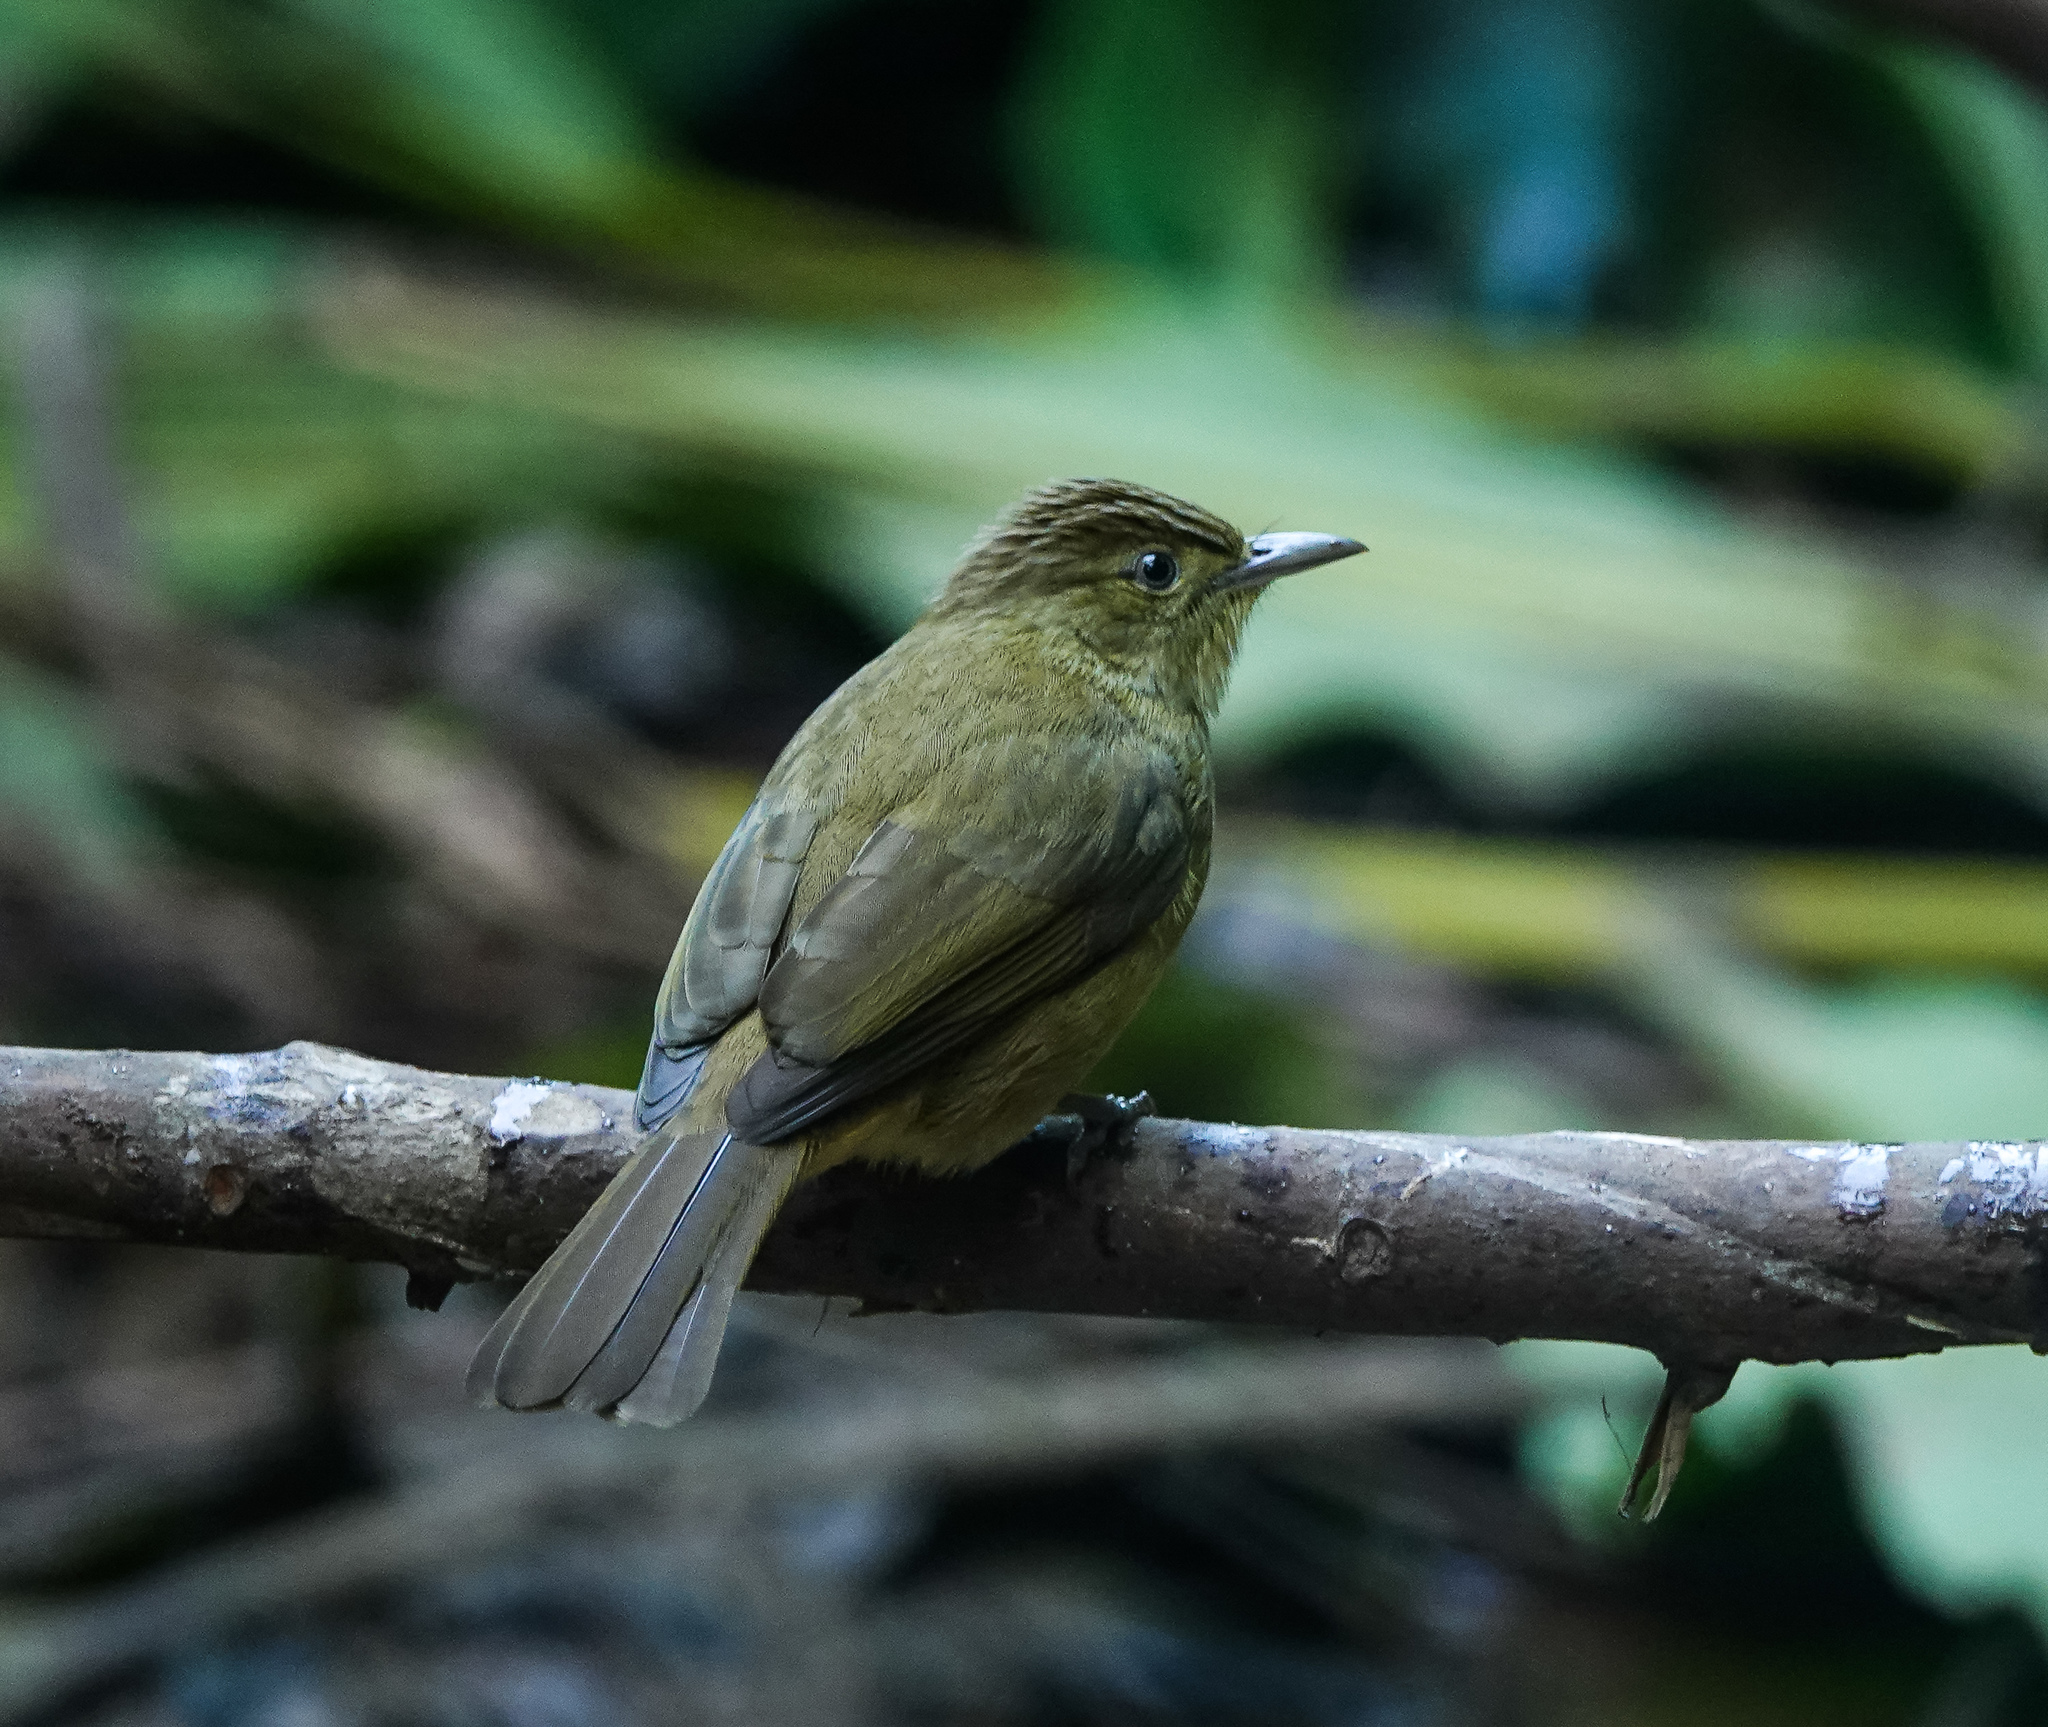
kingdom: Animalia
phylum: Chordata
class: Aves
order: Passeriformes
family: Pycnonotidae
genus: Iole
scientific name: Iole virescens
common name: Olive bulbul
